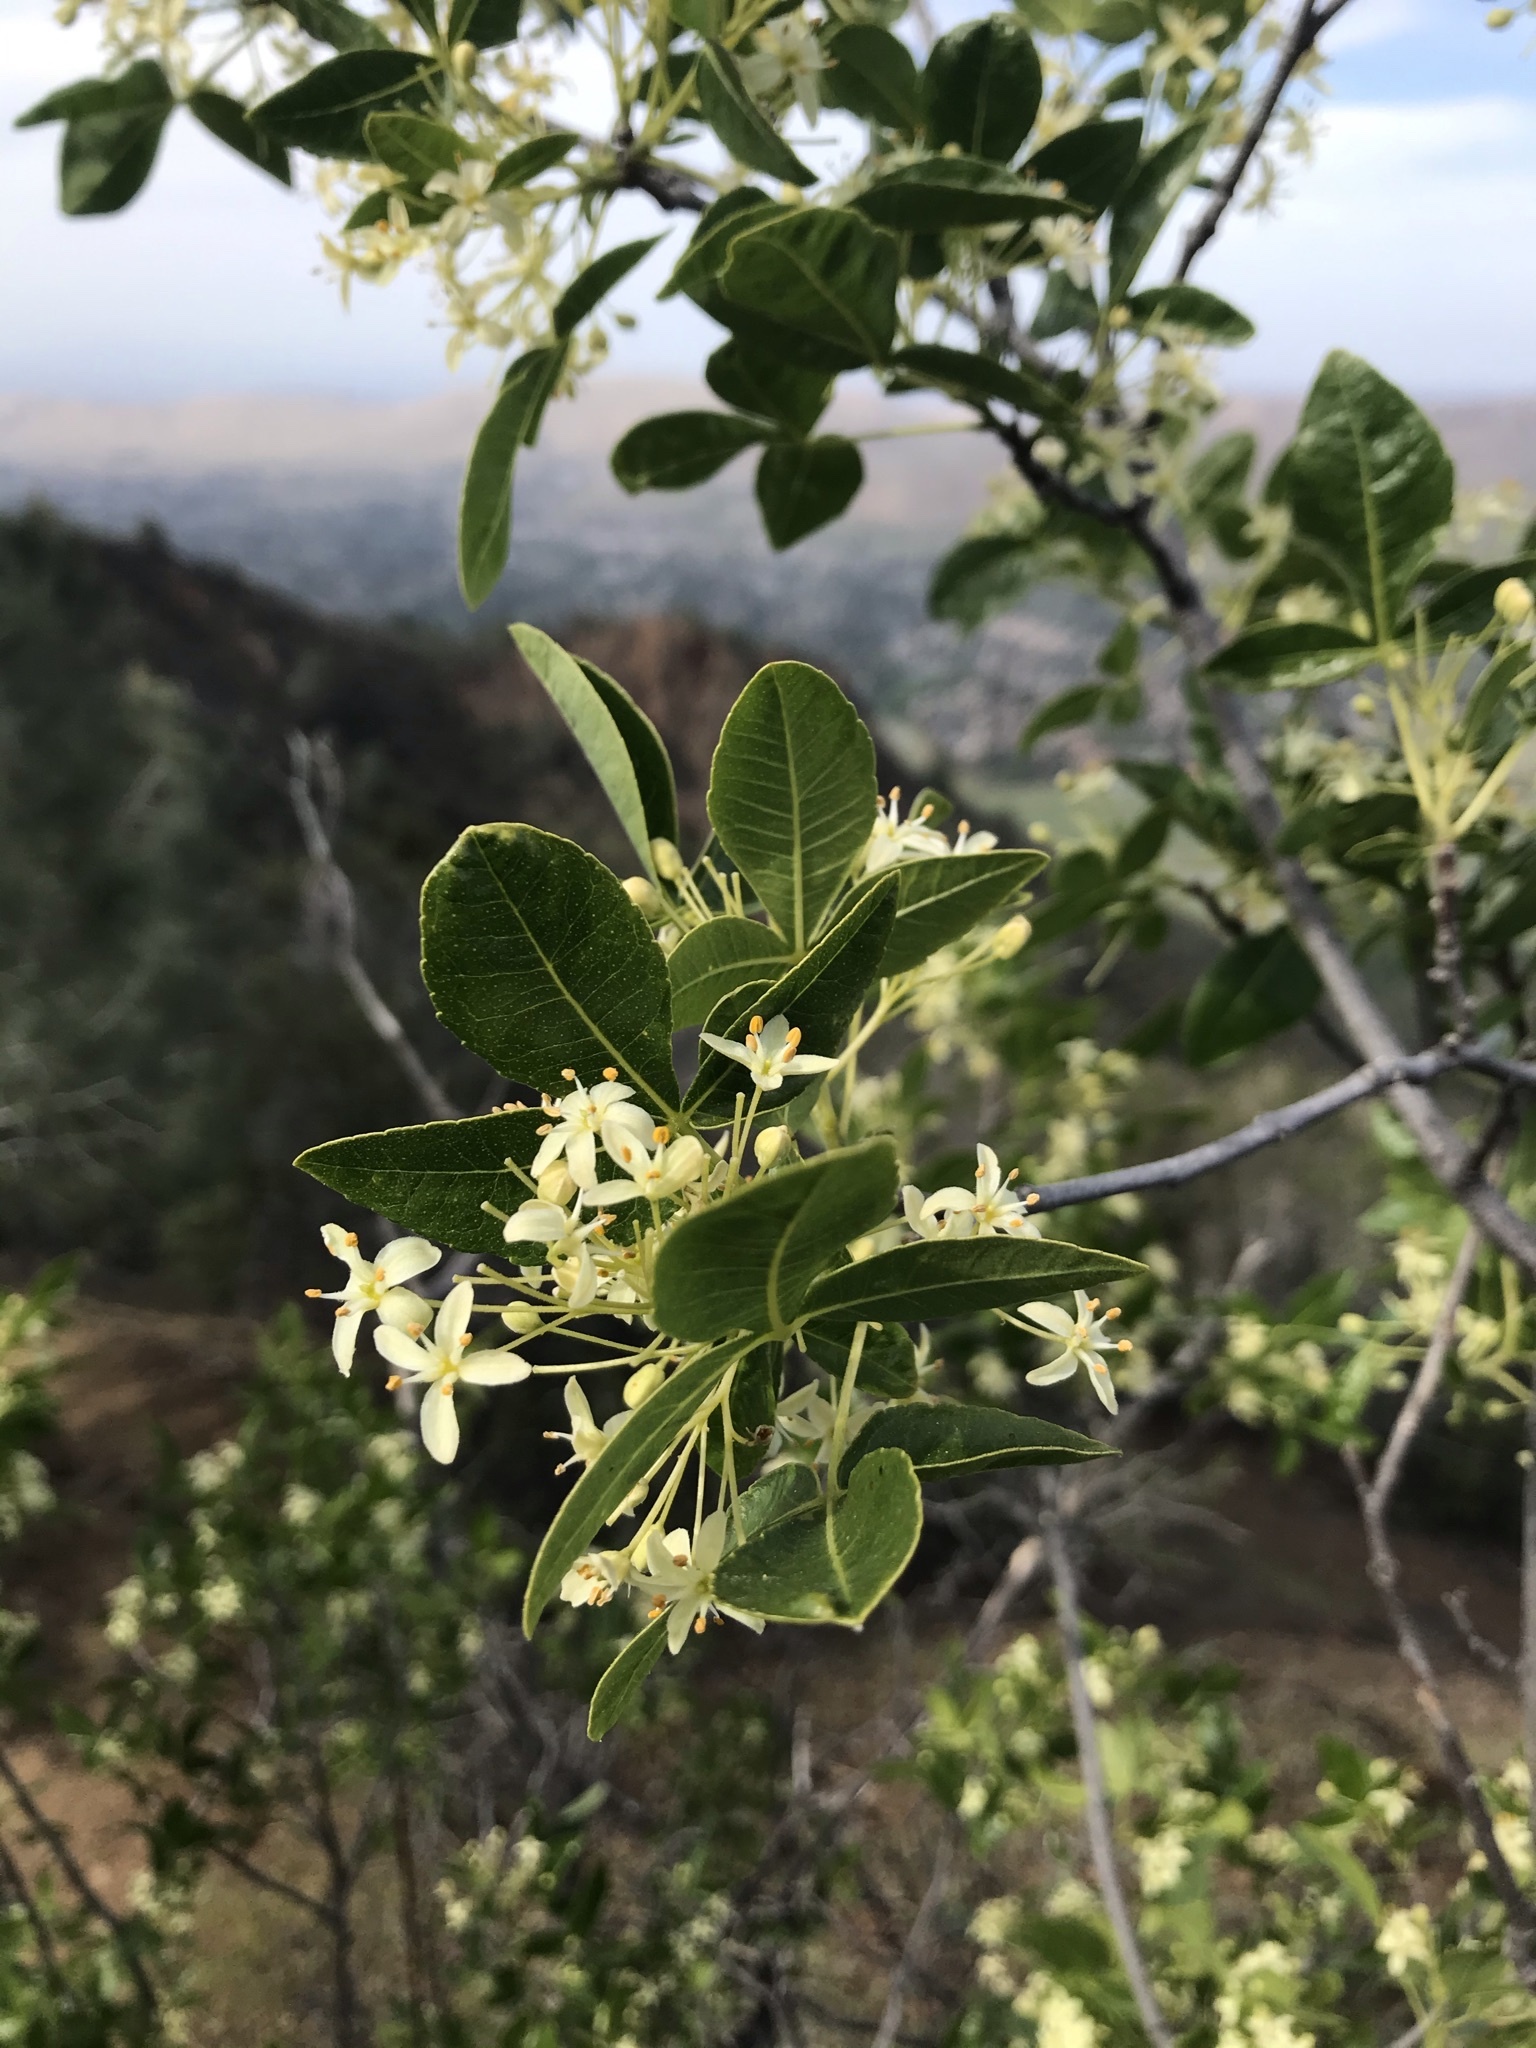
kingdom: Plantae
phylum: Tracheophyta
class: Magnoliopsida
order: Sapindales
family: Rutaceae
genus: Ptelea
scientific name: Ptelea crenulata
